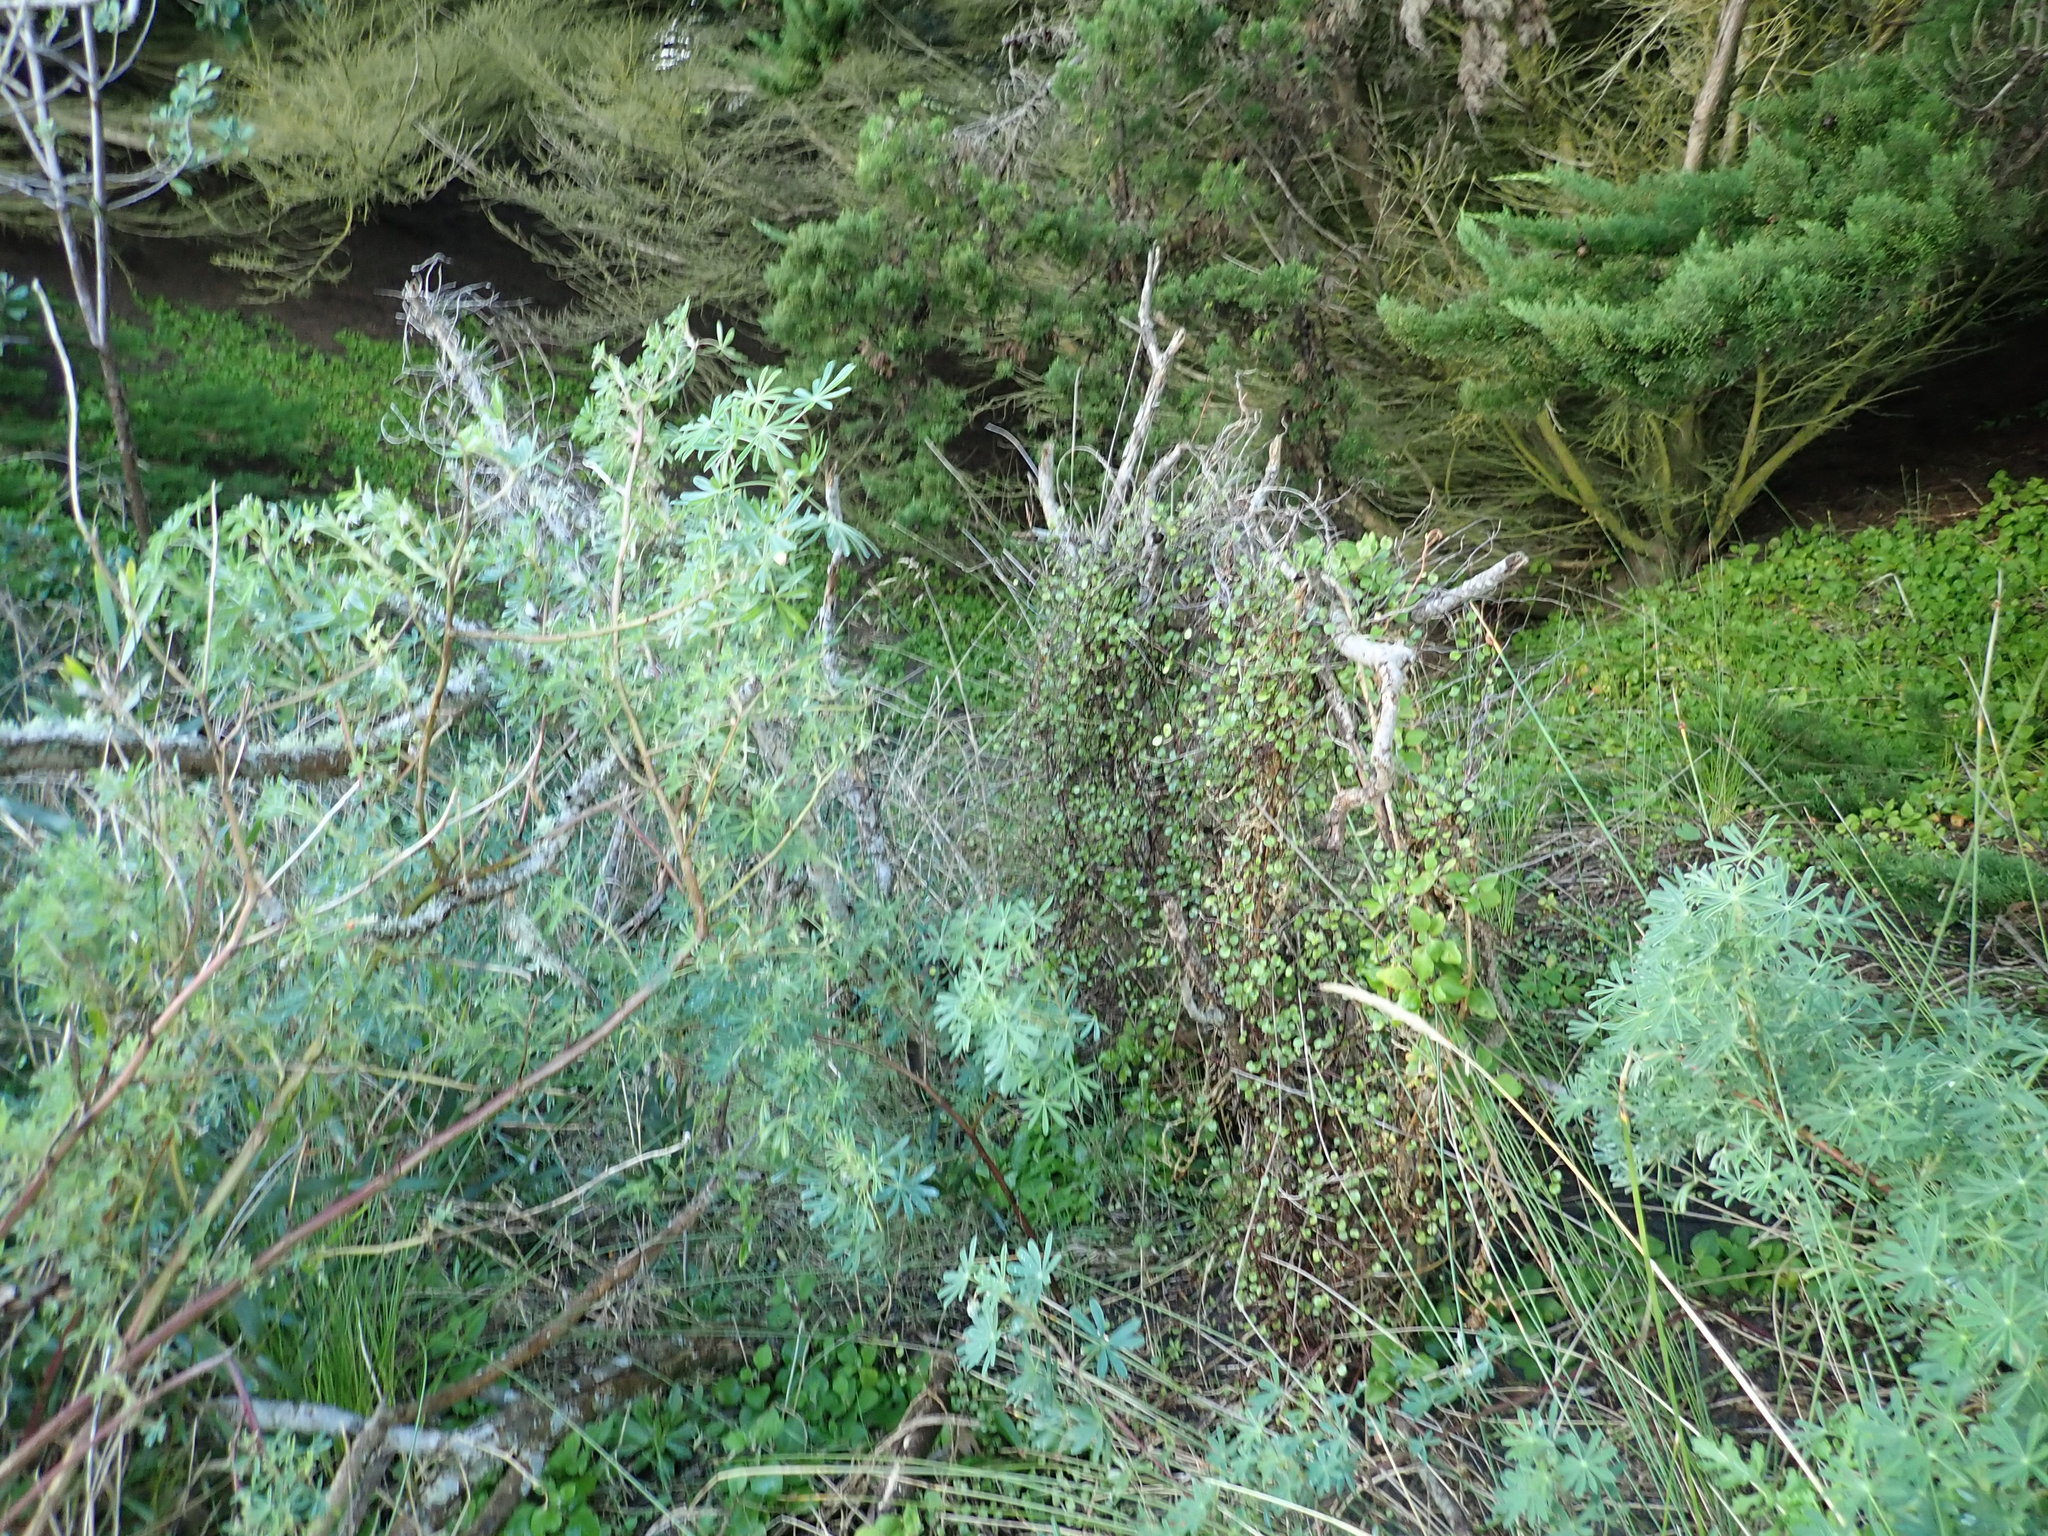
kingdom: Plantae
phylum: Tracheophyta
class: Magnoliopsida
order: Caryophyllales
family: Polygonaceae
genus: Muehlenbeckia
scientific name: Muehlenbeckia complexa
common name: Wireplant
